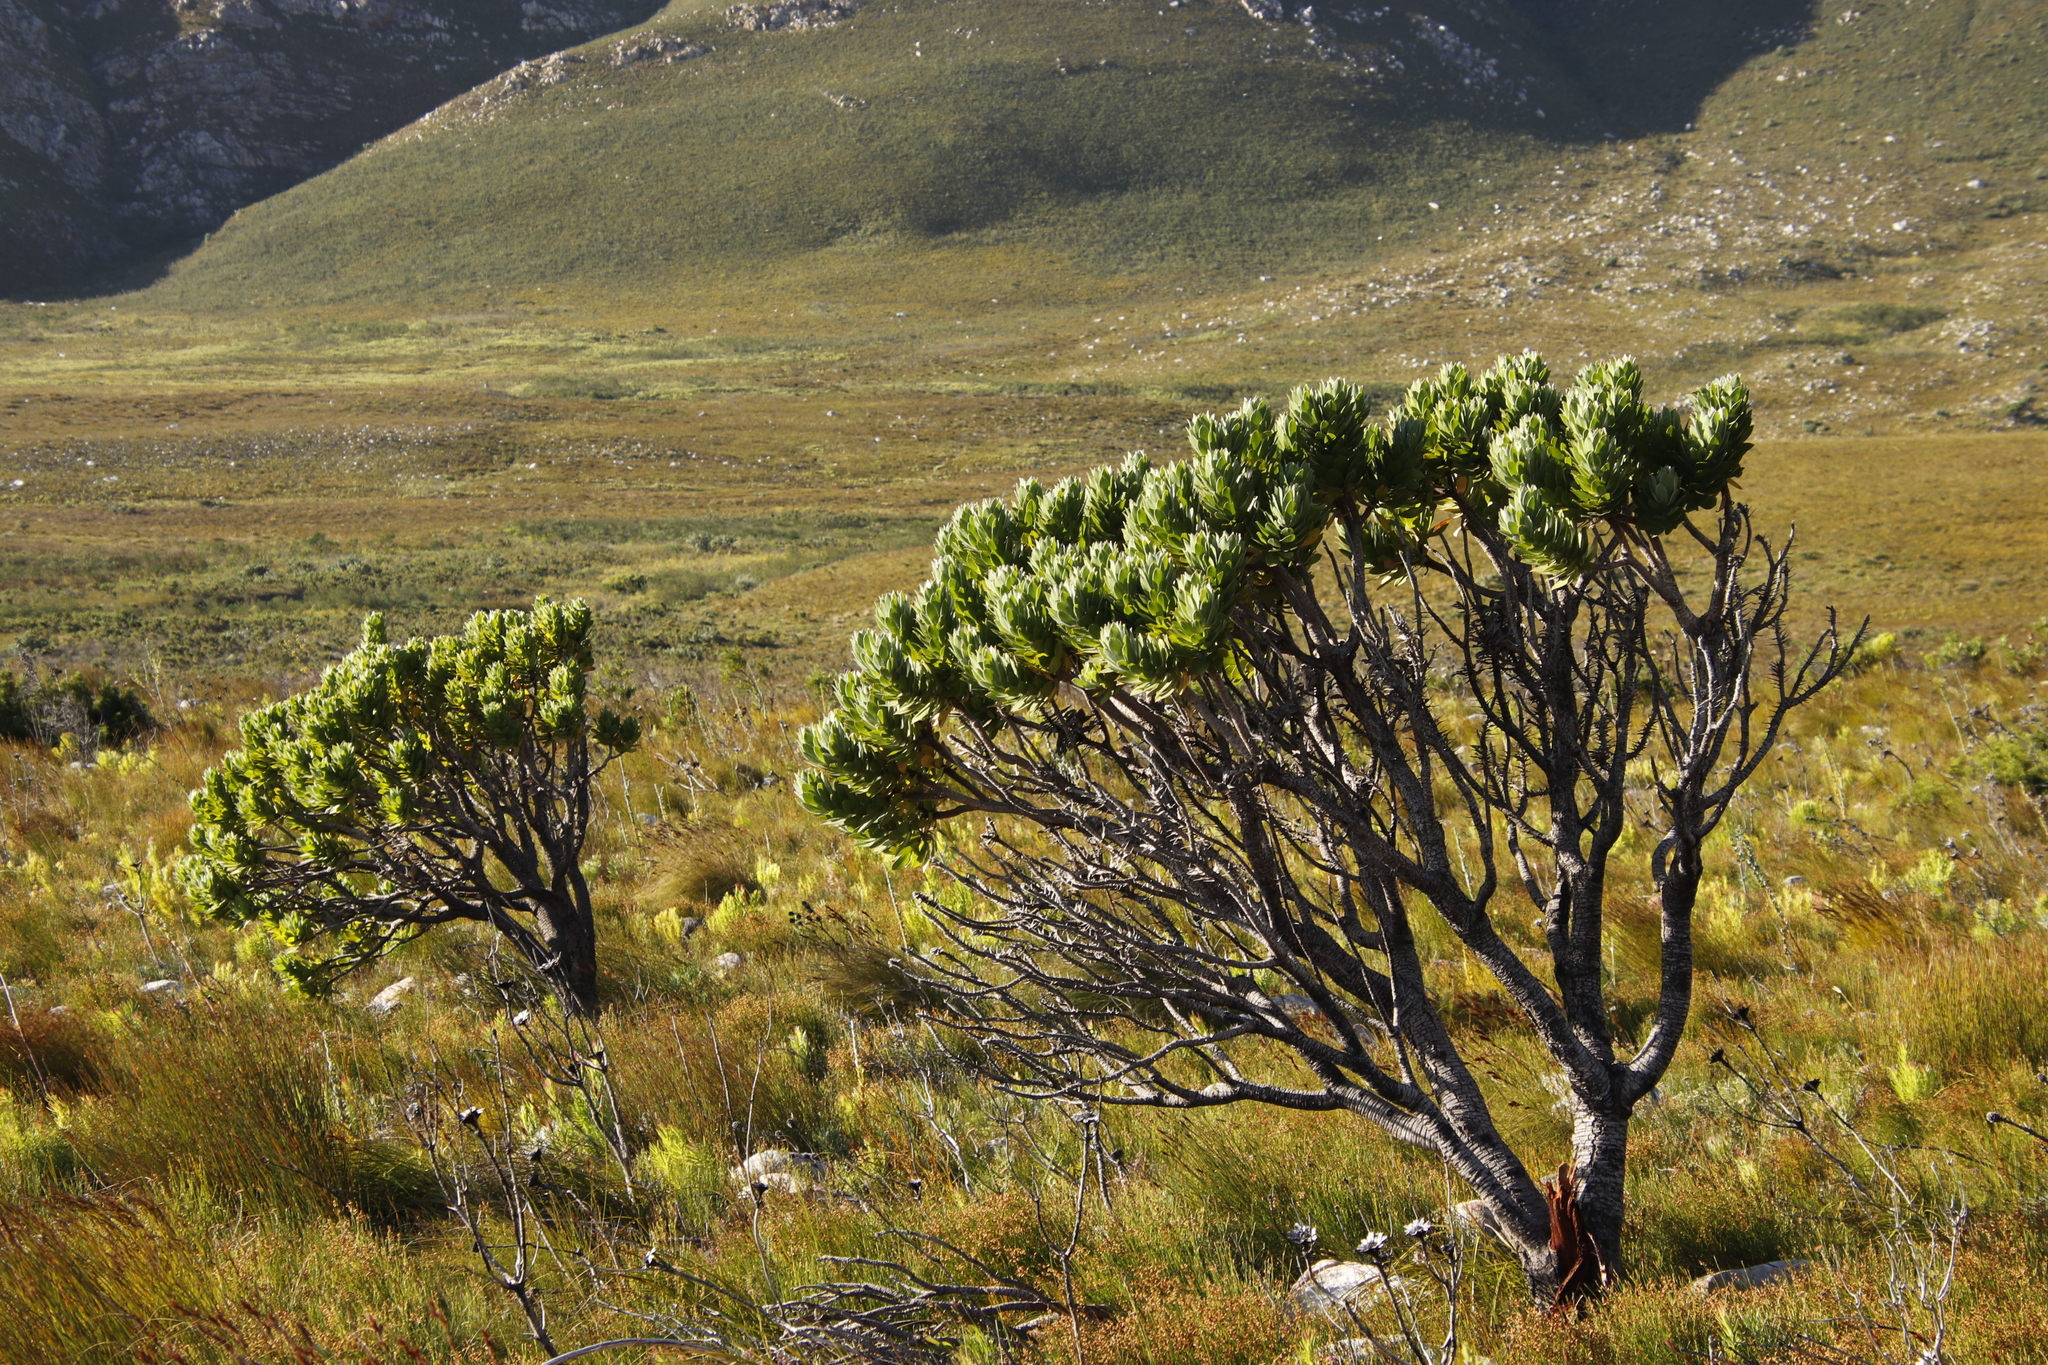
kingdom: Plantae
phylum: Tracheophyta
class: Magnoliopsida
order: Proteales
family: Proteaceae
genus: Leucospermum
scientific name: Leucospermum conocarpodendron
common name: Tree pincushion
